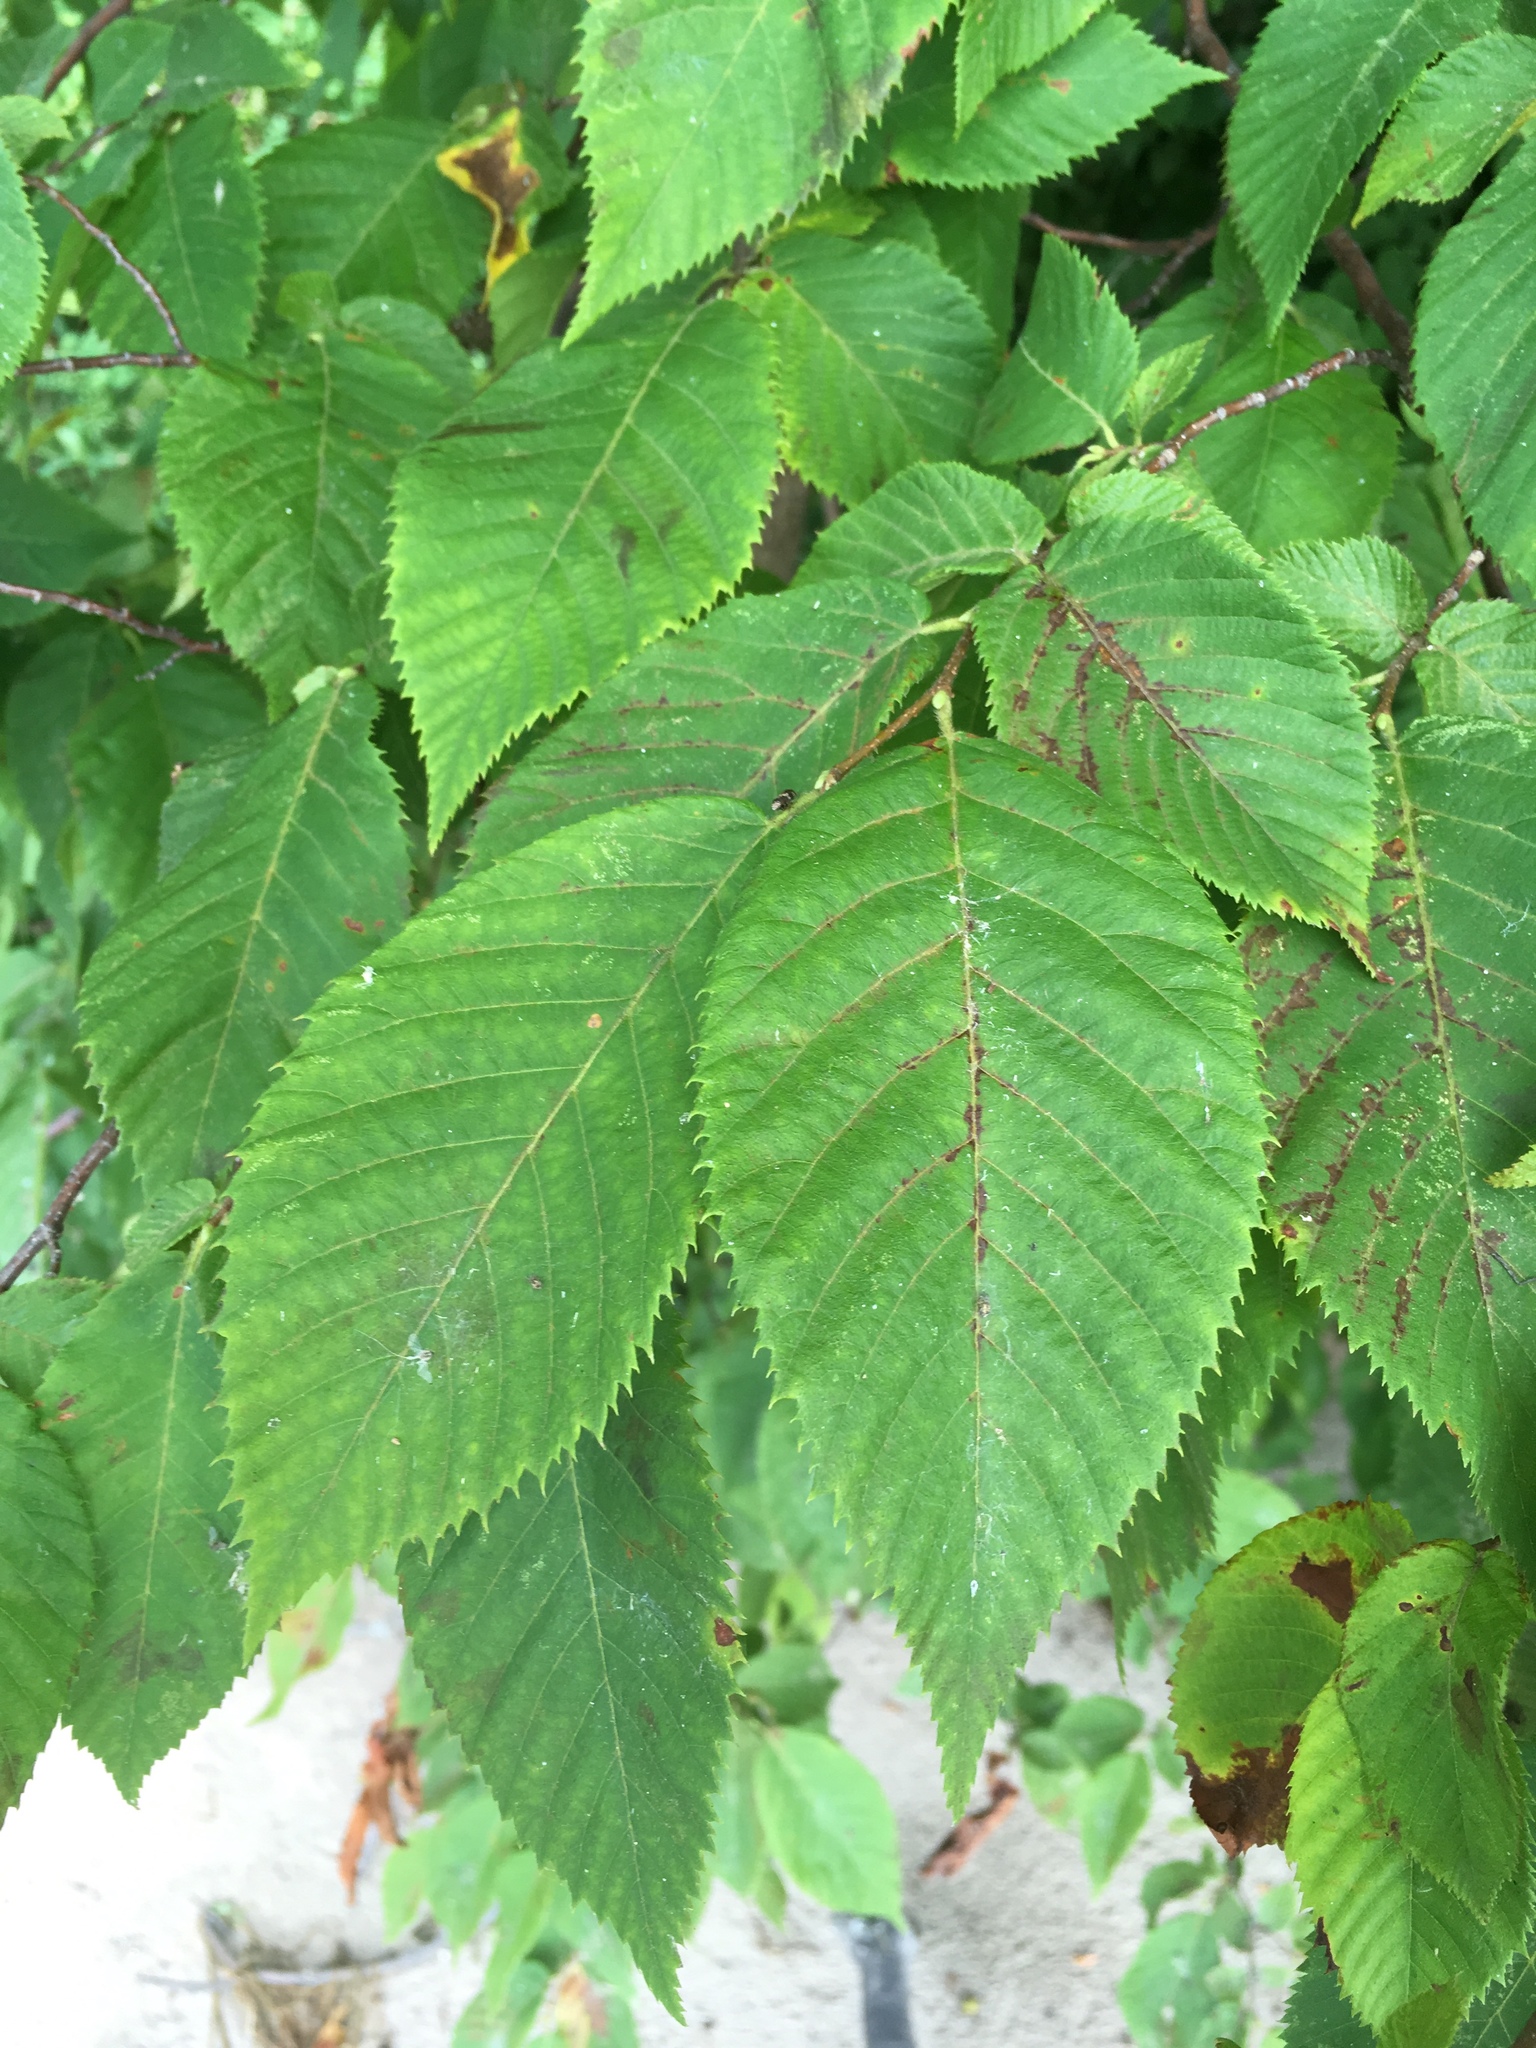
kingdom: Plantae
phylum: Tracheophyta
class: Magnoliopsida
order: Fagales
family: Betulaceae
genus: Ostrya
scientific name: Ostrya virginiana
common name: Ironwood
